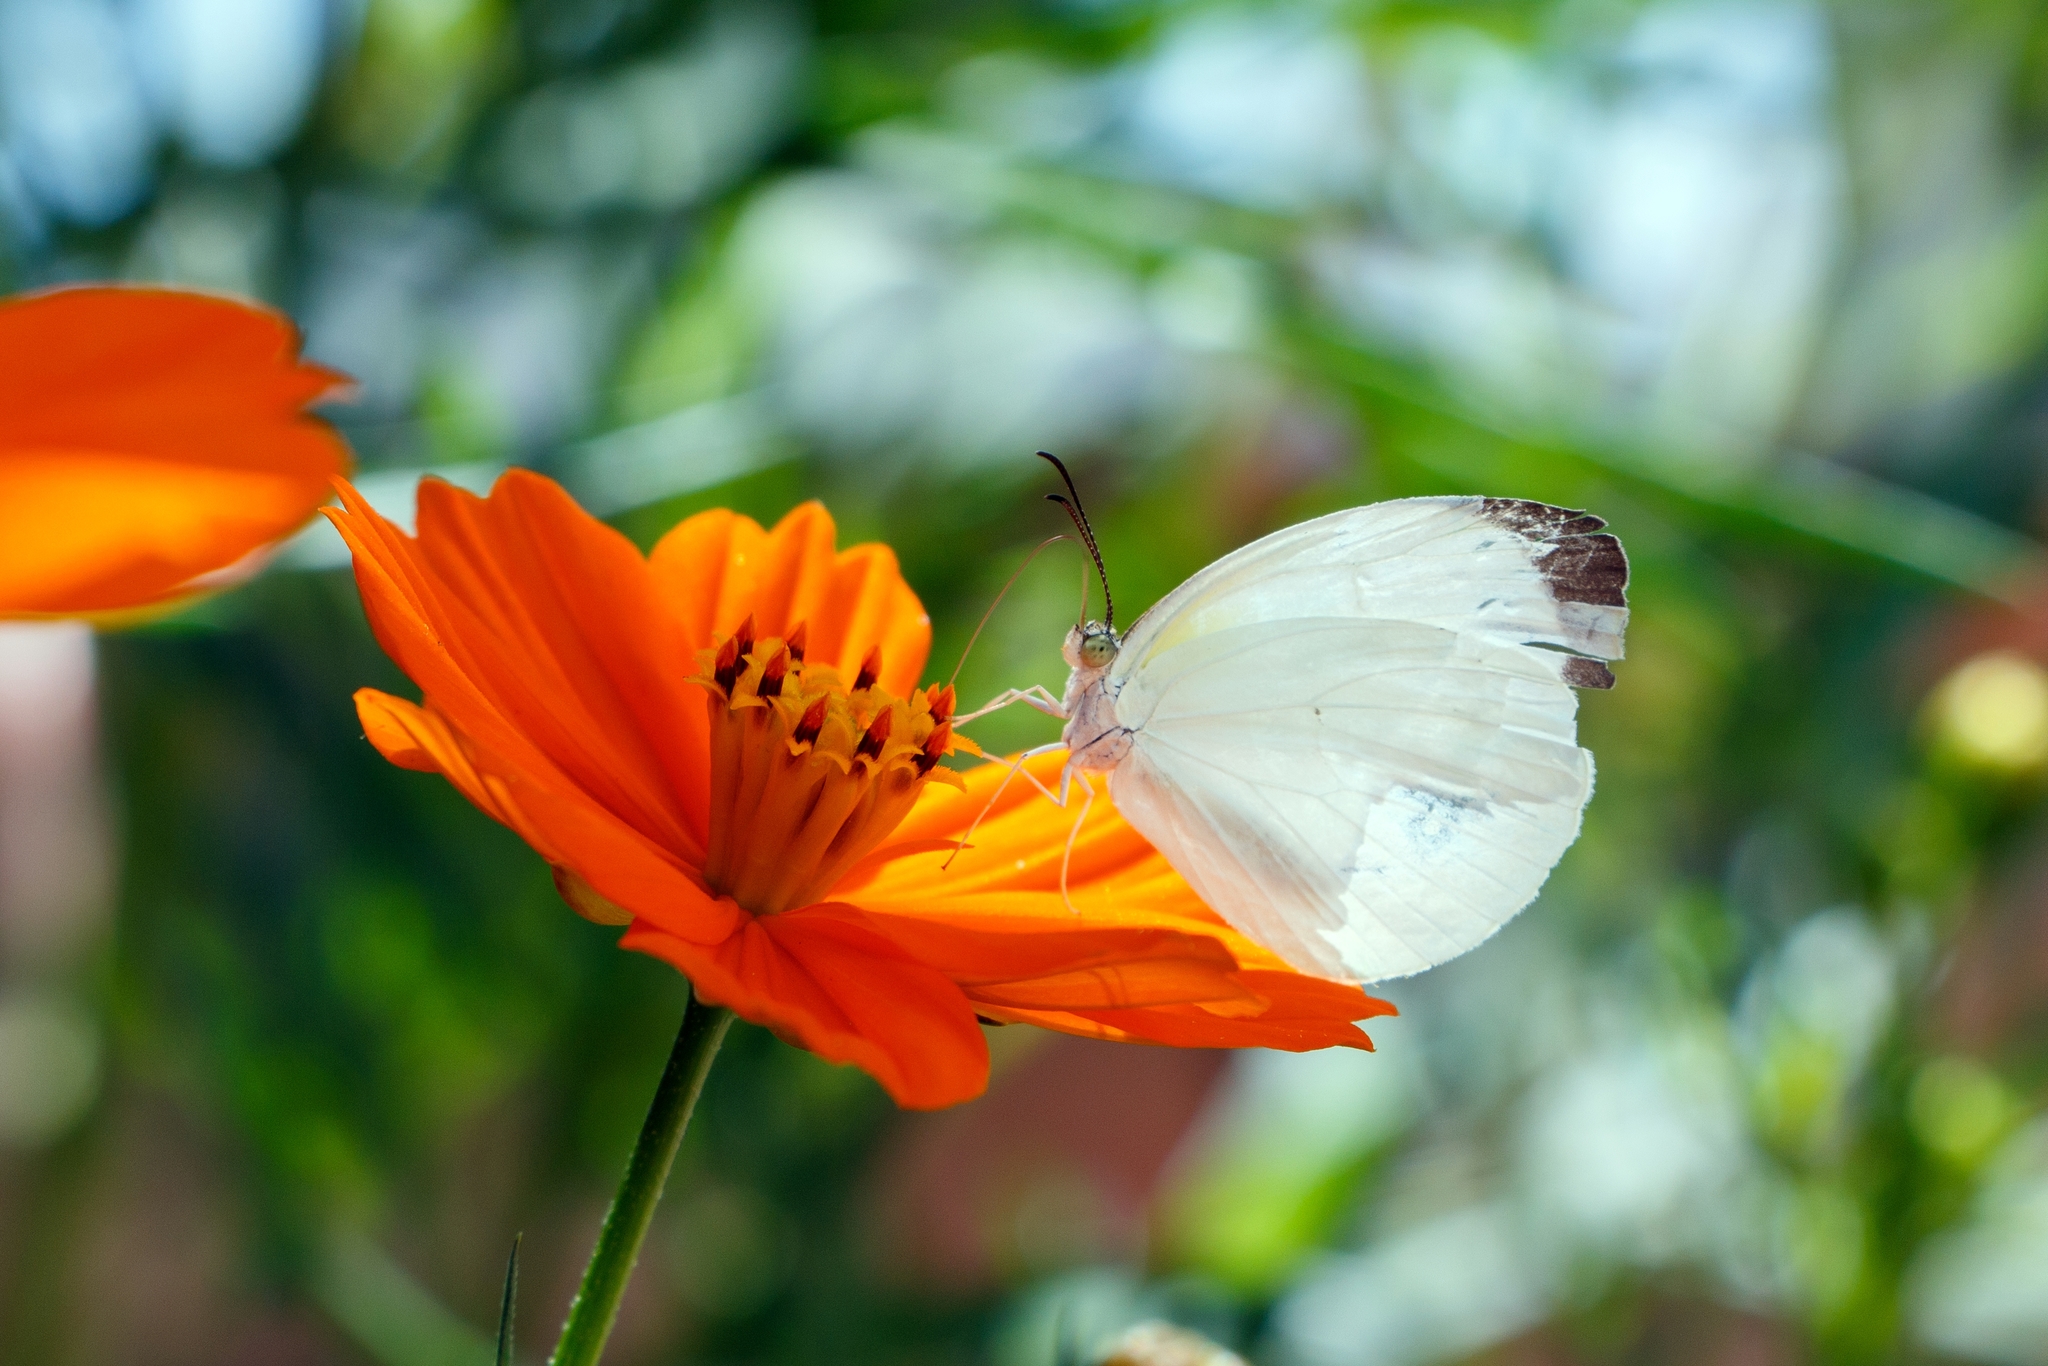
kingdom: Animalia
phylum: Arthropoda
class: Insecta
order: Lepidoptera
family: Pieridae
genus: Abaeis
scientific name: Abaeis albula
